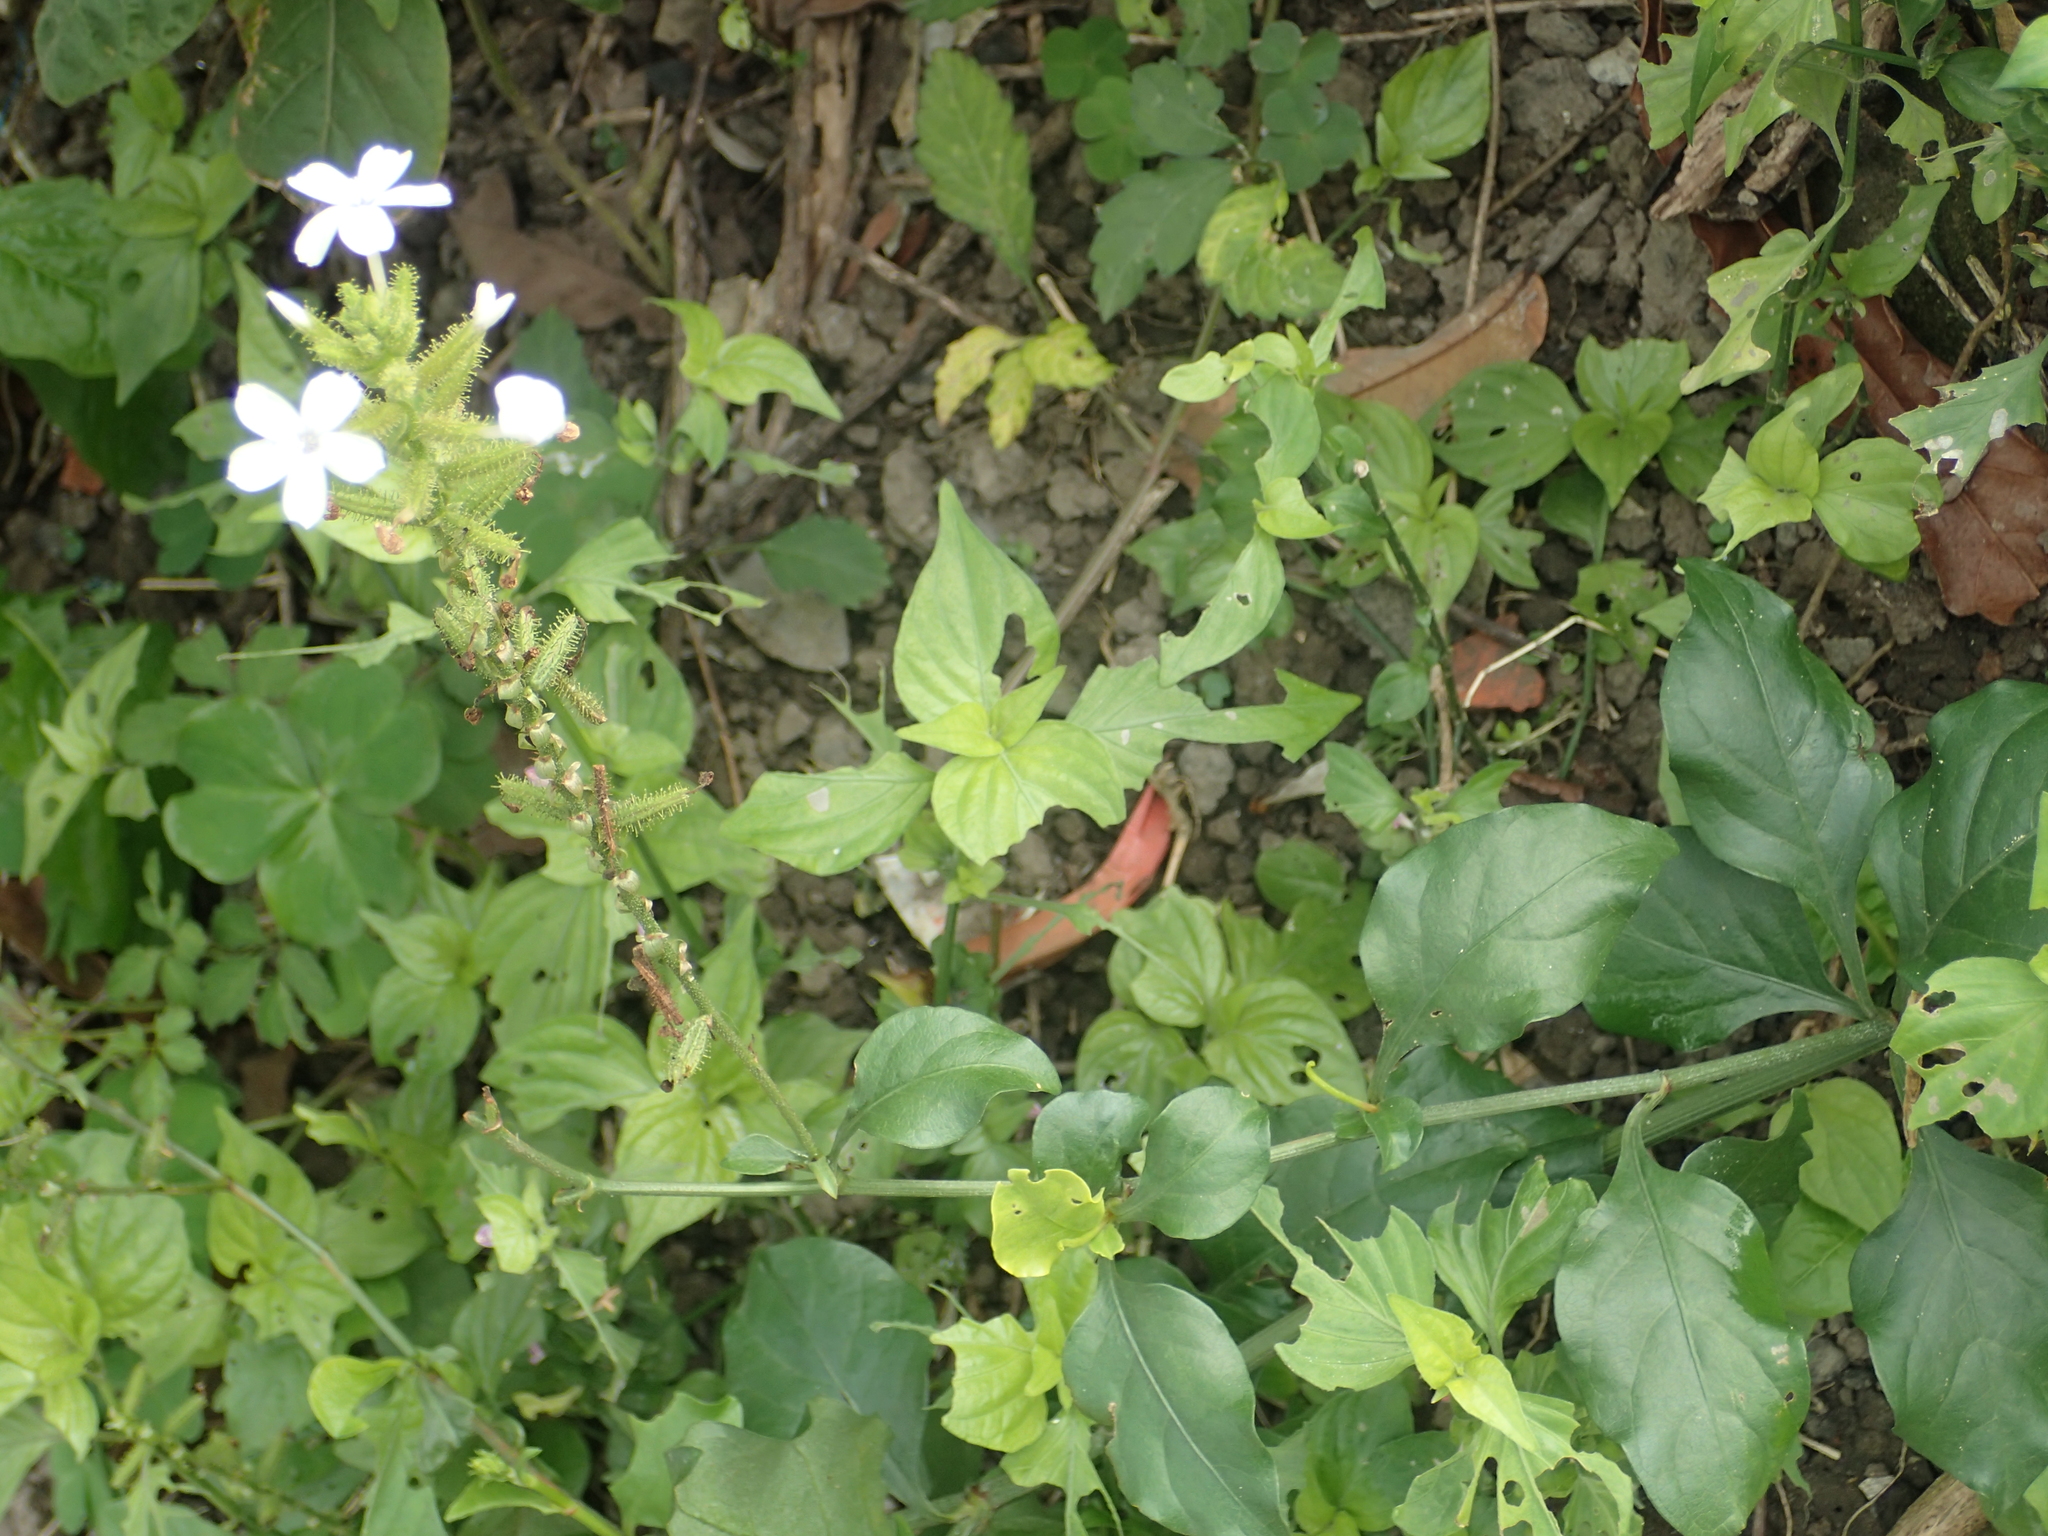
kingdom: Plantae
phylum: Tracheophyta
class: Magnoliopsida
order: Caryophyllales
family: Plumbaginaceae
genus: Plumbago
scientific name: Plumbago zeylanica
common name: Doctorbush
